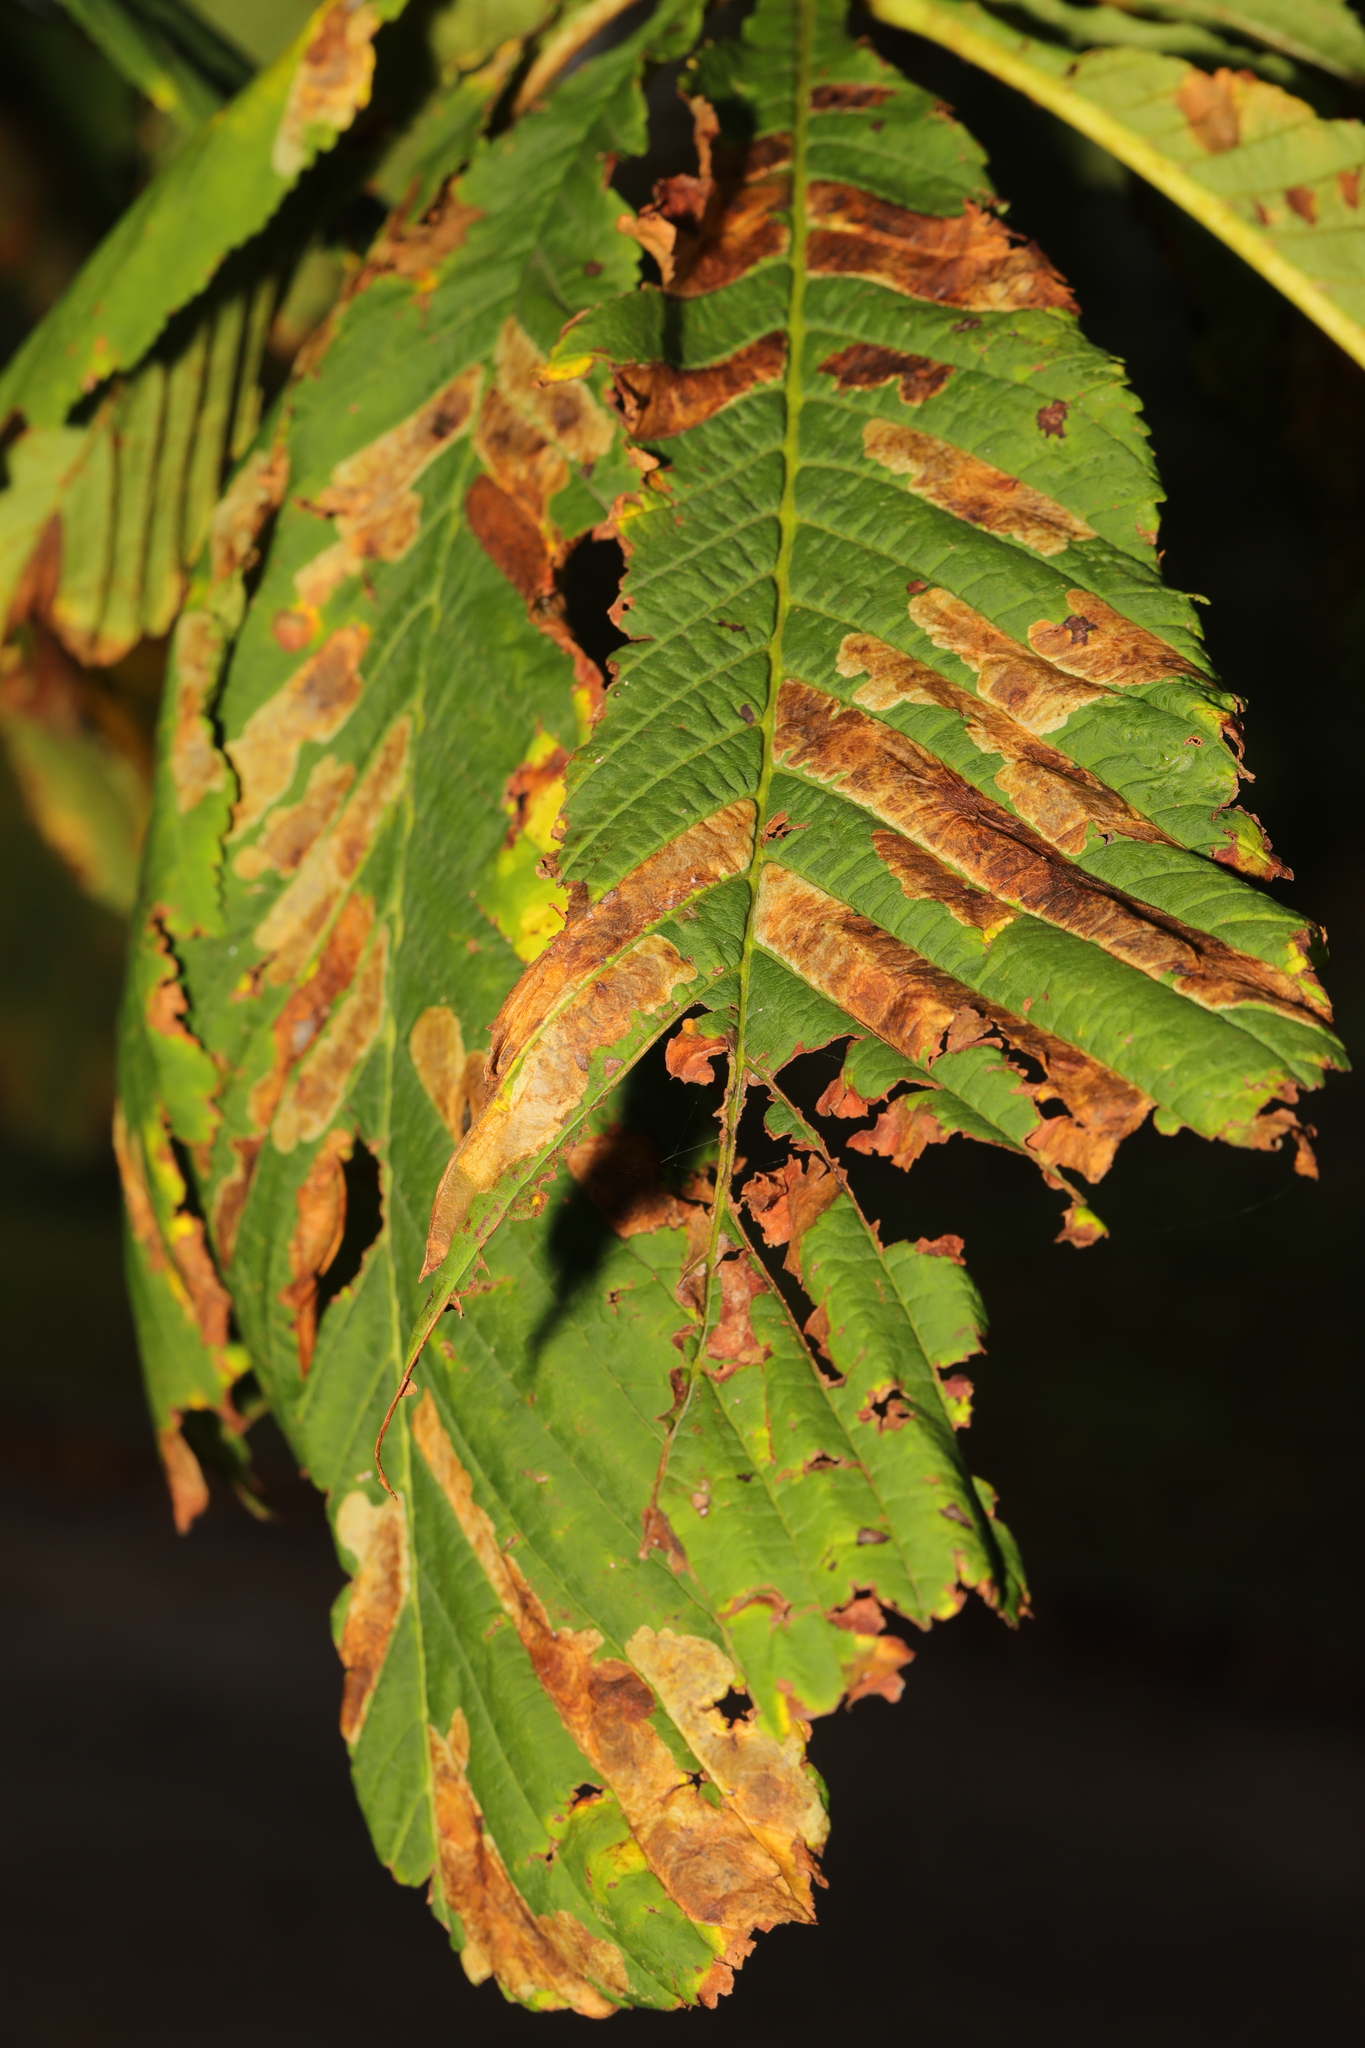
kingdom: Plantae
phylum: Tracheophyta
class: Magnoliopsida
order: Sapindales
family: Sapindaceae
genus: Aesculus
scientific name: Aesculus hippocastanum
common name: Horse-chestnut
